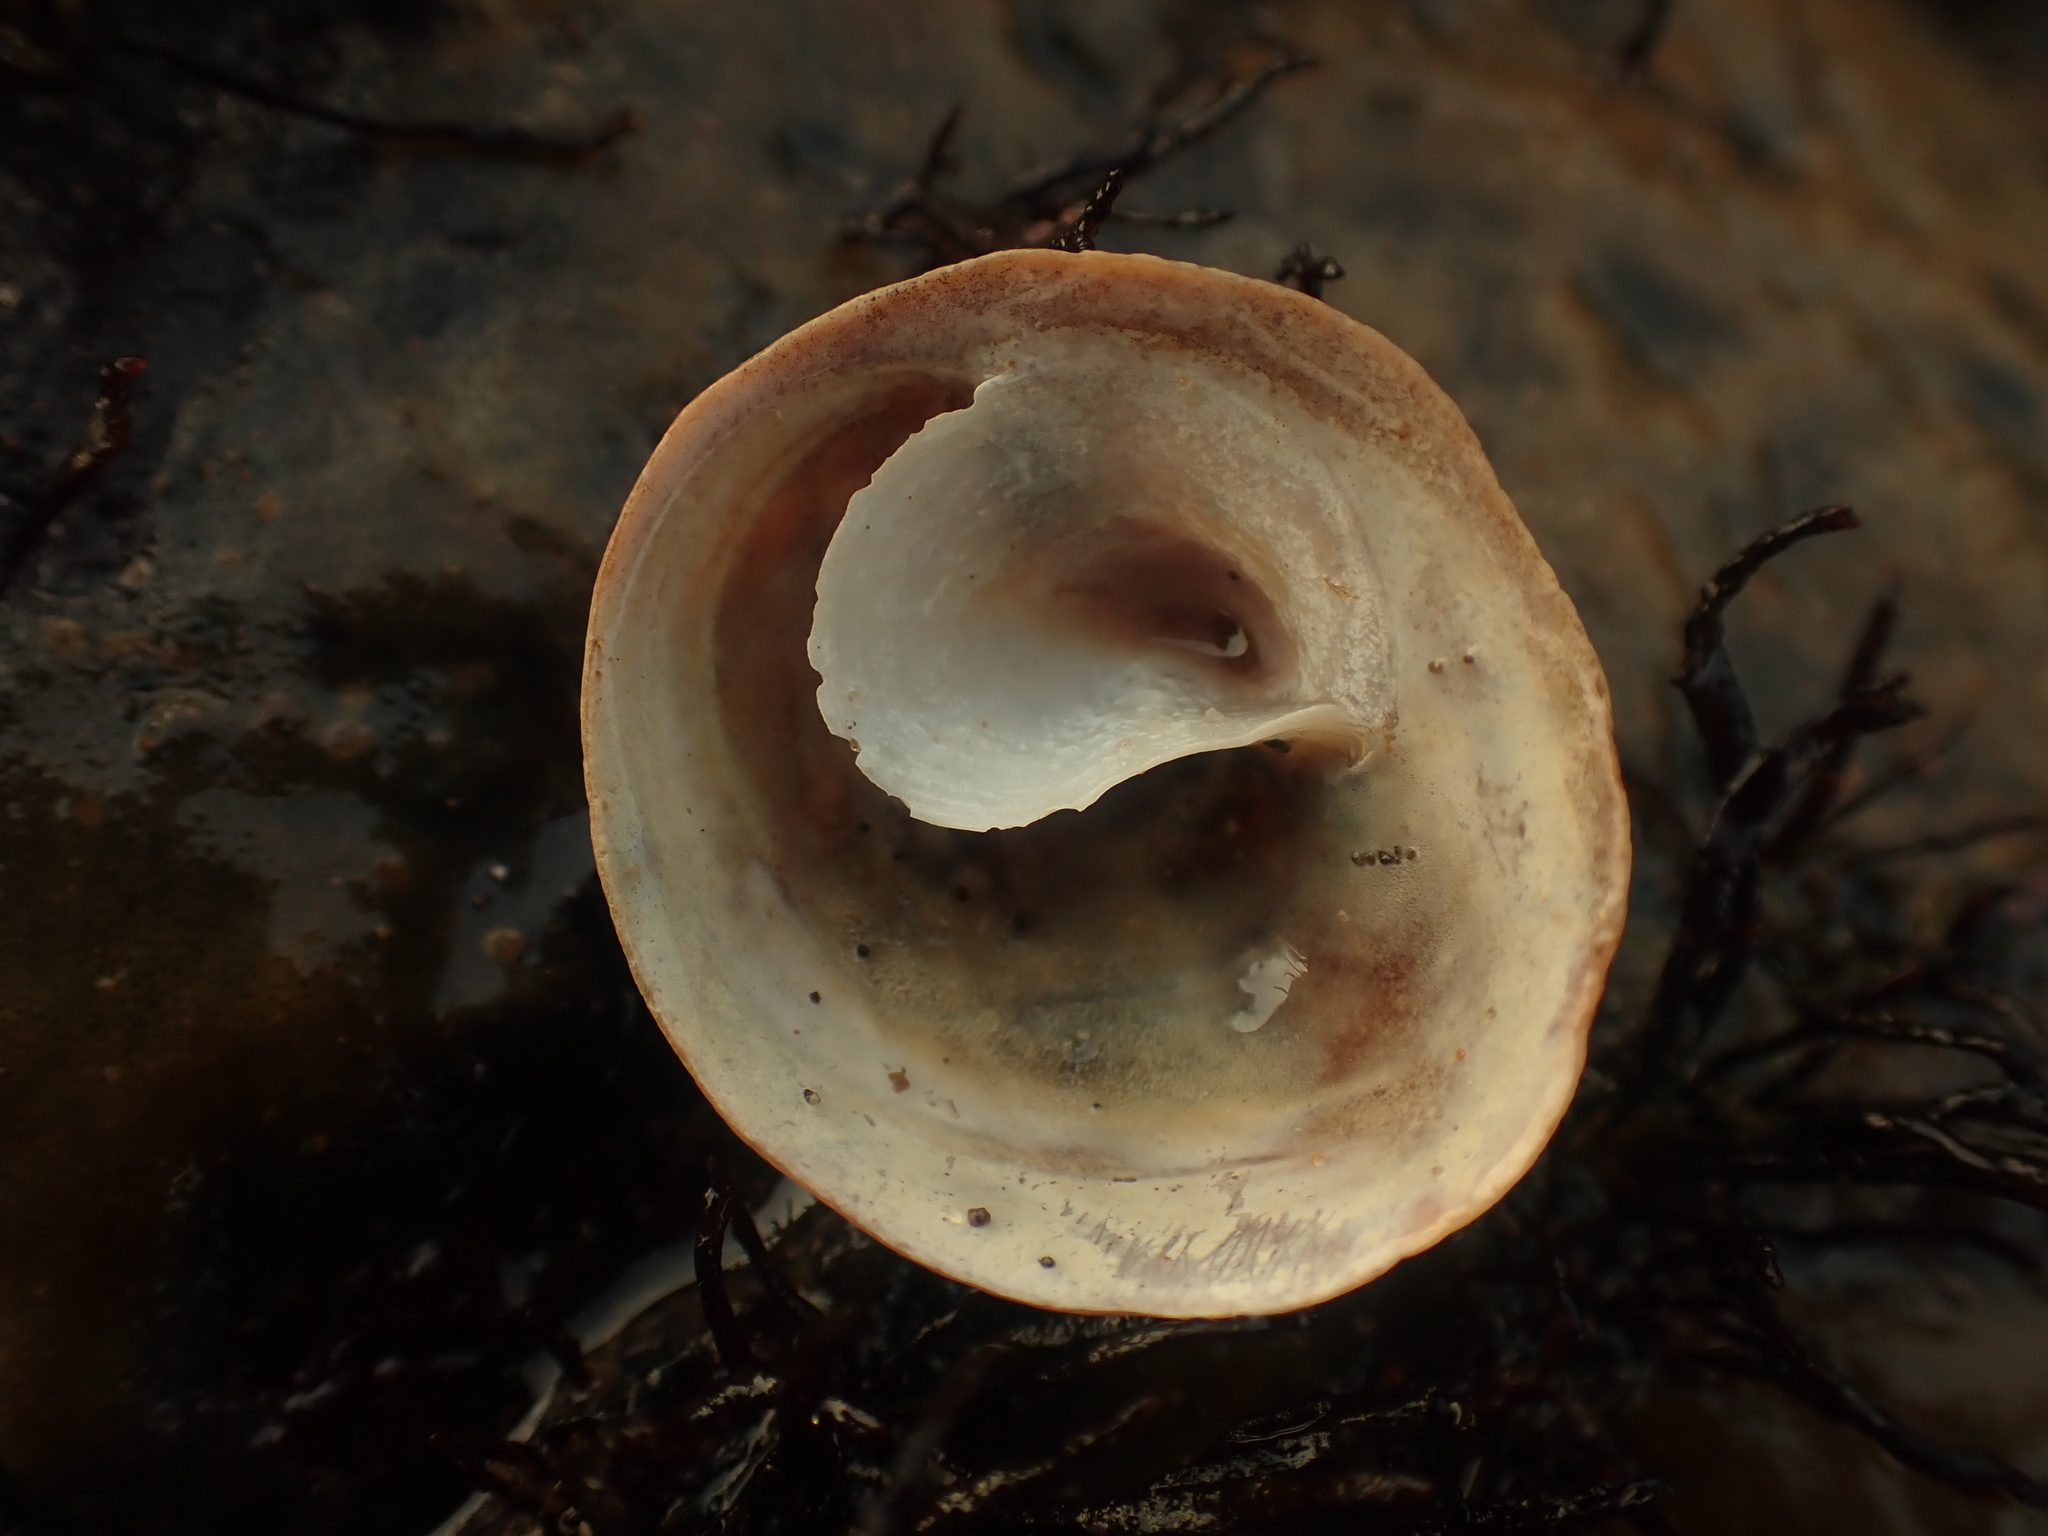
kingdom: Animalia
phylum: Mollusca
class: Gastropoda
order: Littorinimorpha
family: Calyptraeidae
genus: Crucibulum
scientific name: Crucibulum striatum
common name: Striate cup-and -saucer
